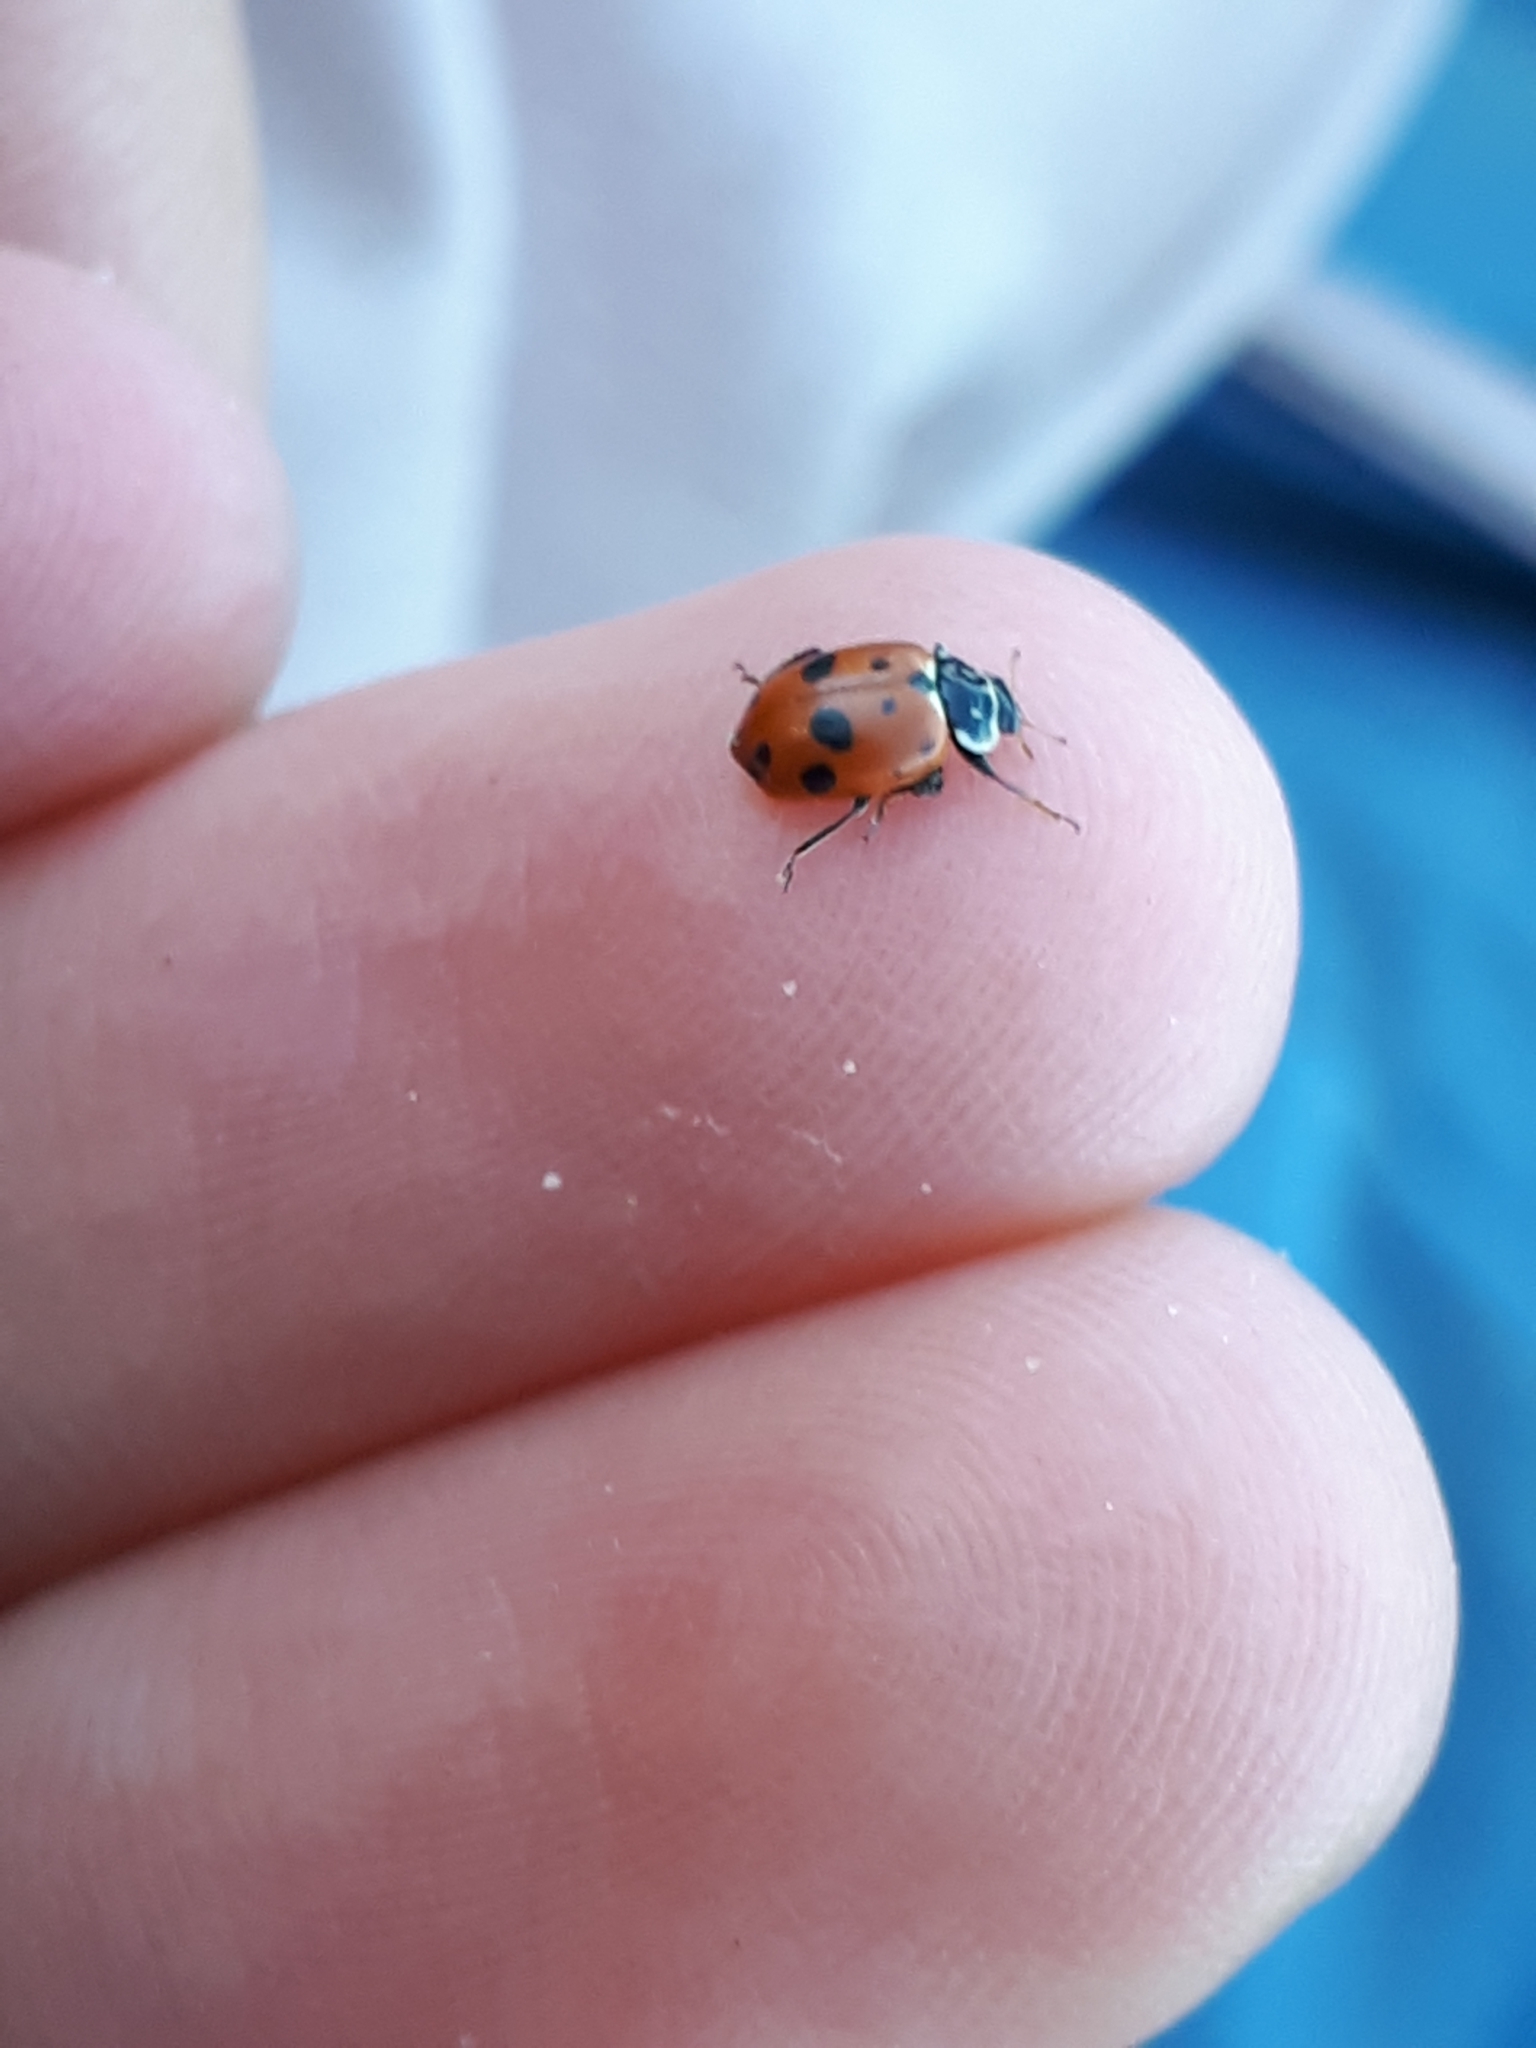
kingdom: Animalia
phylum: Arthropoda
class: Insecta
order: Coleoptera
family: Coccinellidae
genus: Hippodamia
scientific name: Hippodamia variegata
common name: Ladybird beetle
